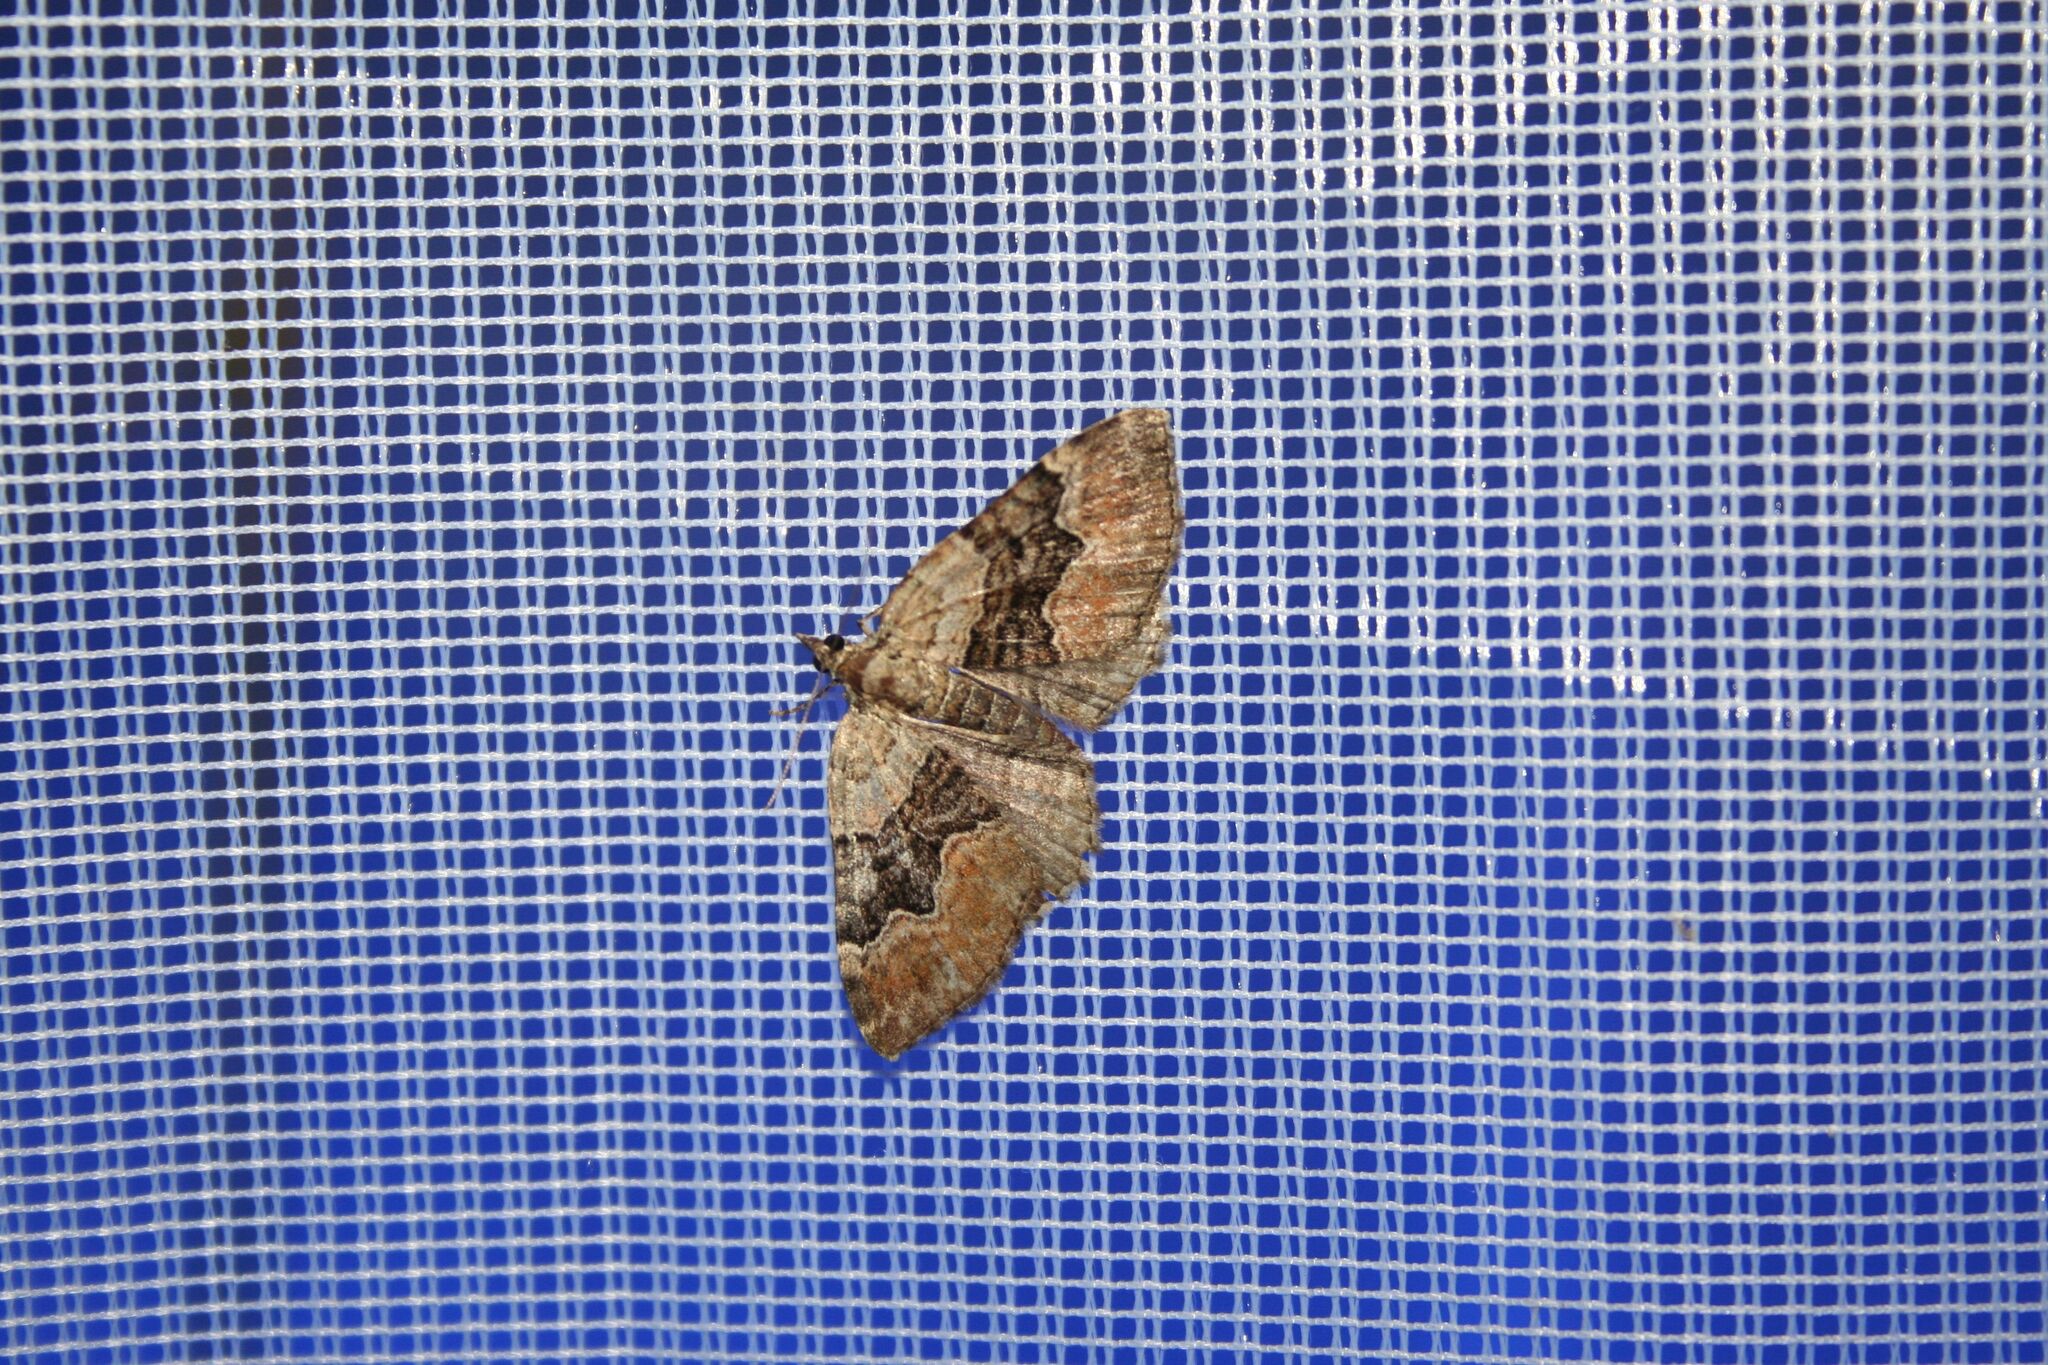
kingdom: Animalia
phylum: Arthropoda
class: Insecta
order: Lepidoptera
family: Geometridae
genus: Xanthorhoe
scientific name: Xanthorhoe quadrifasiata
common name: Large twin-spot carpet
